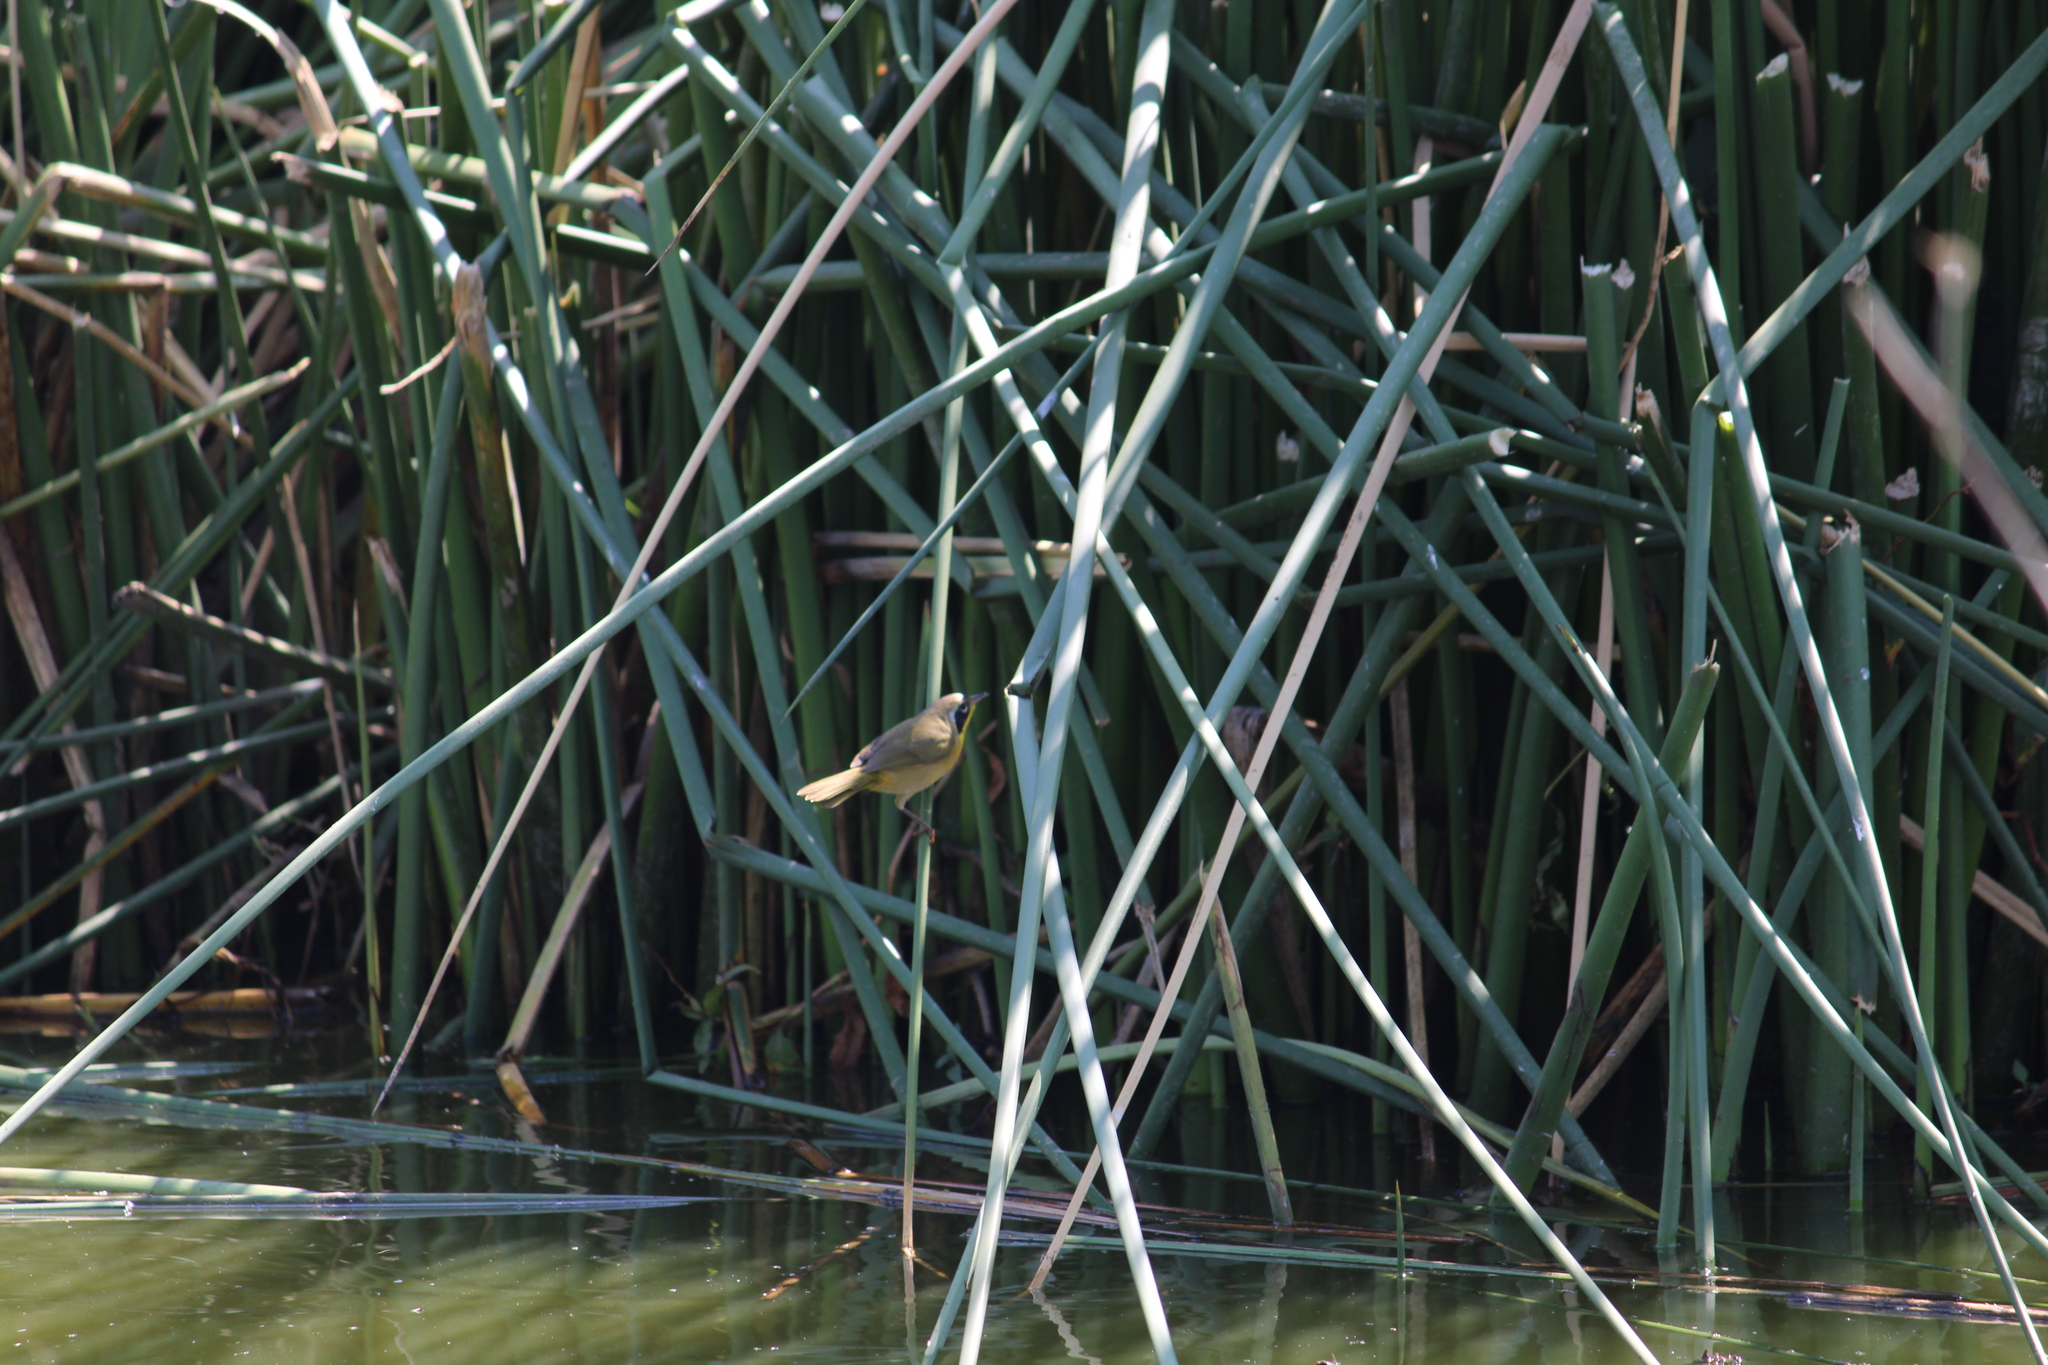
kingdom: Animalia
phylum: Chordata
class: Aves
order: Passeriformes
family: Parulidae
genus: Geothlypis
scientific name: Geothlypis trichas
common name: Common yellowthroat
